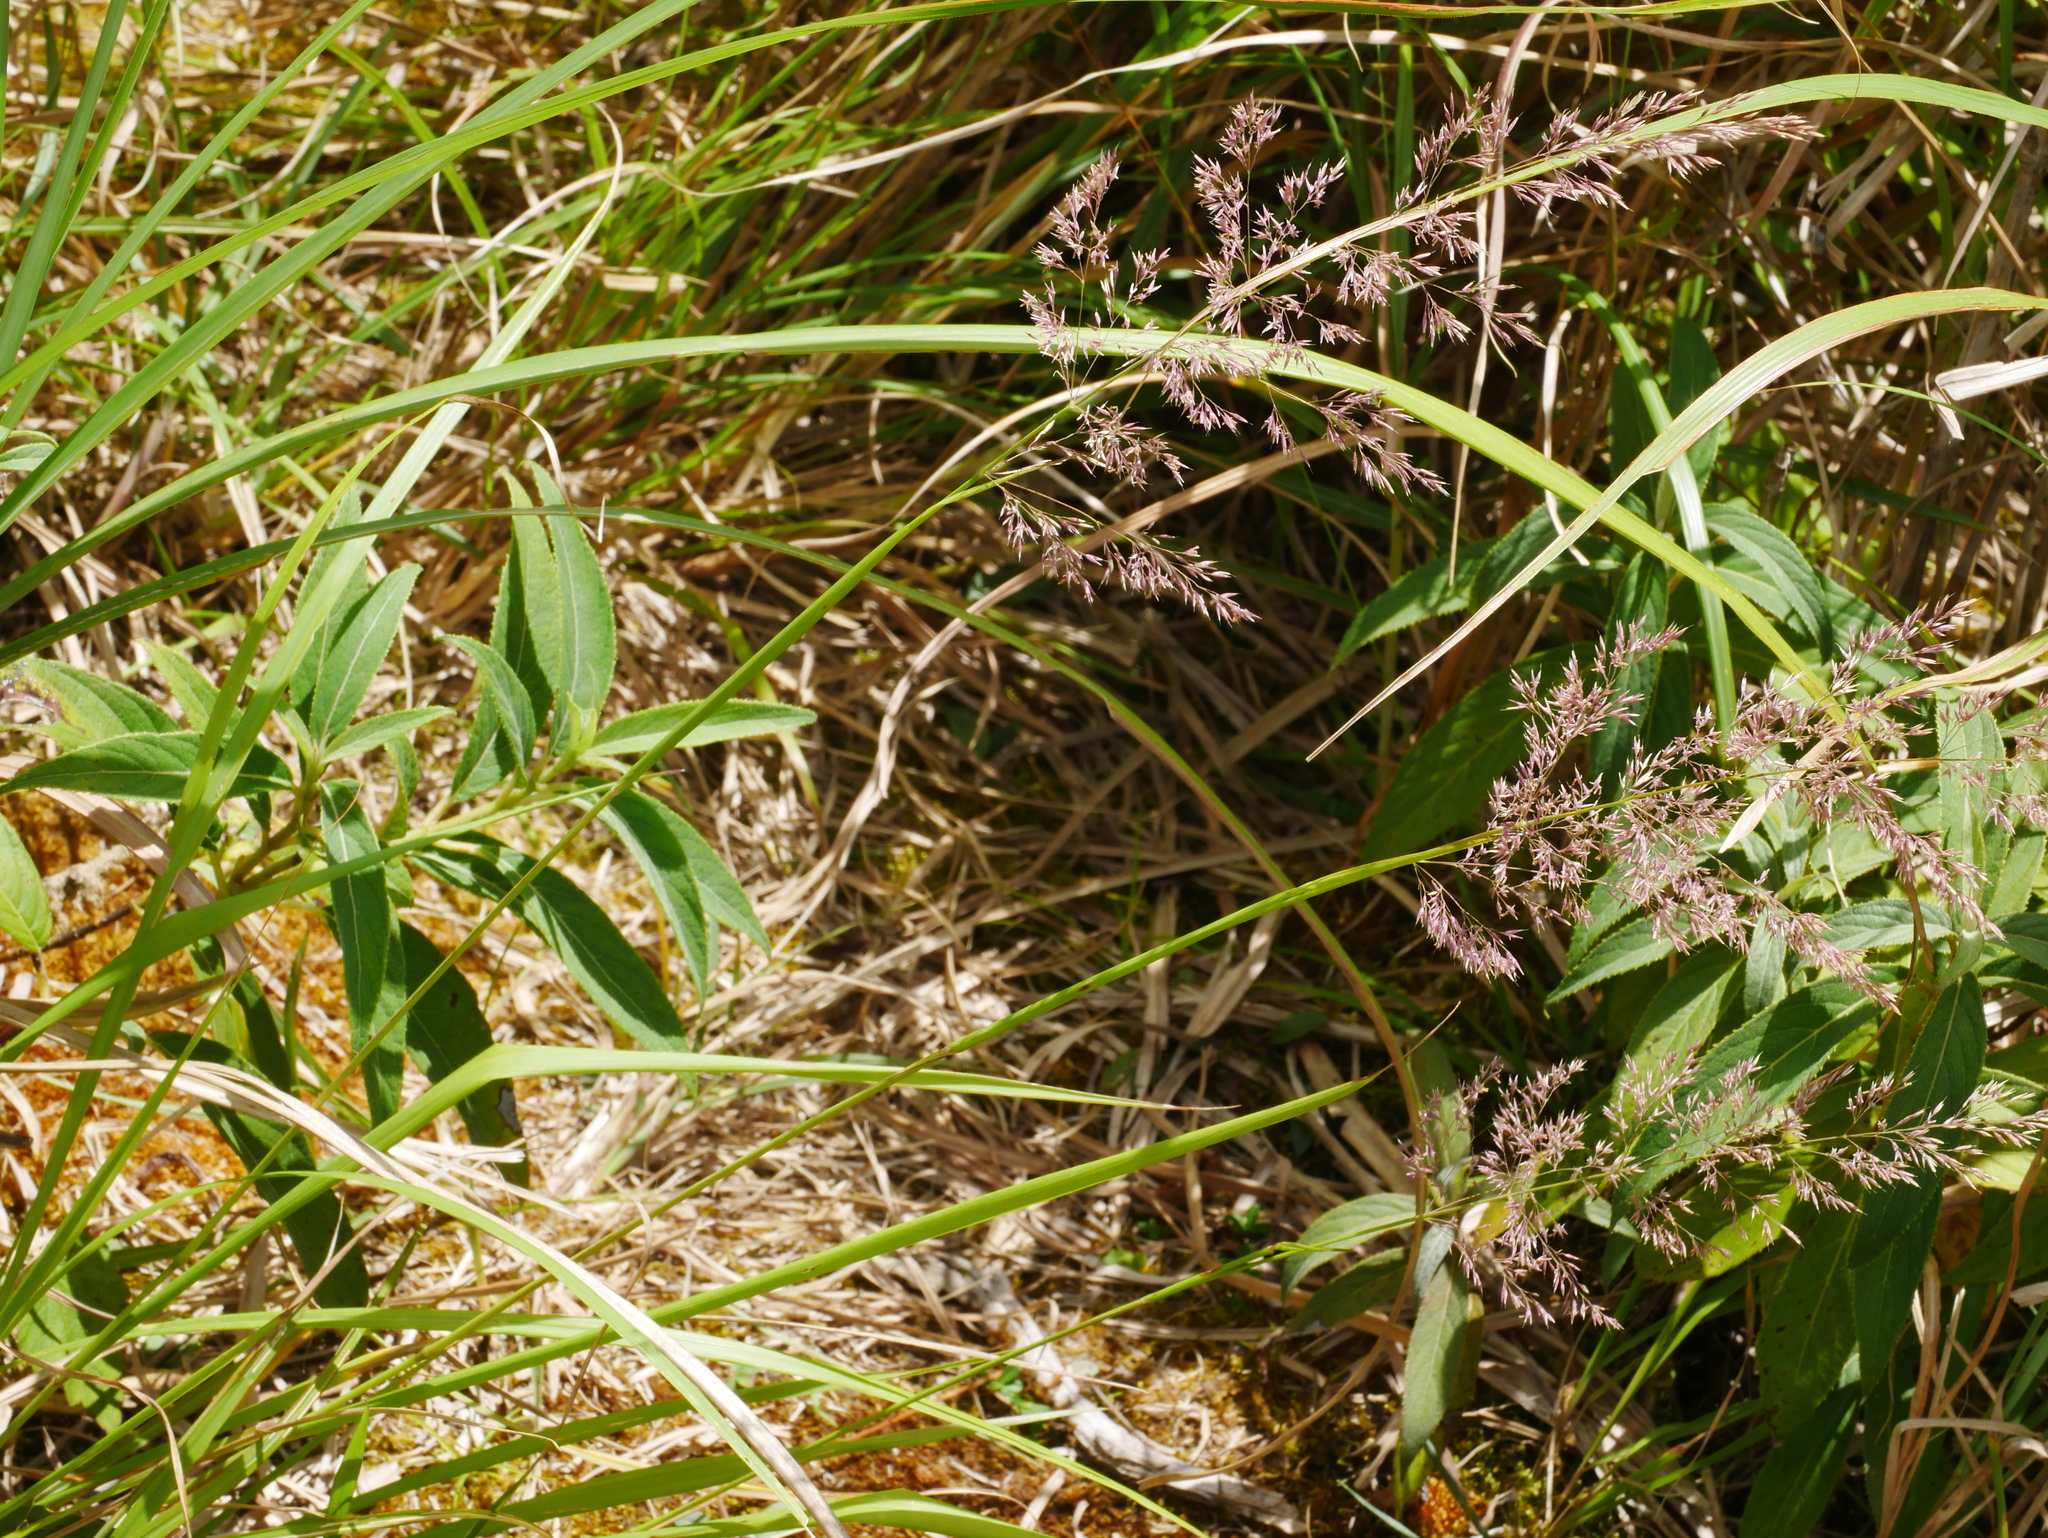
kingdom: Plantae
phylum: Tracheophyta
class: Liliopsida
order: Poales
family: Poaceae
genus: Calamagrostis
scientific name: Calamagrostis arundinacea
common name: Metskastik
